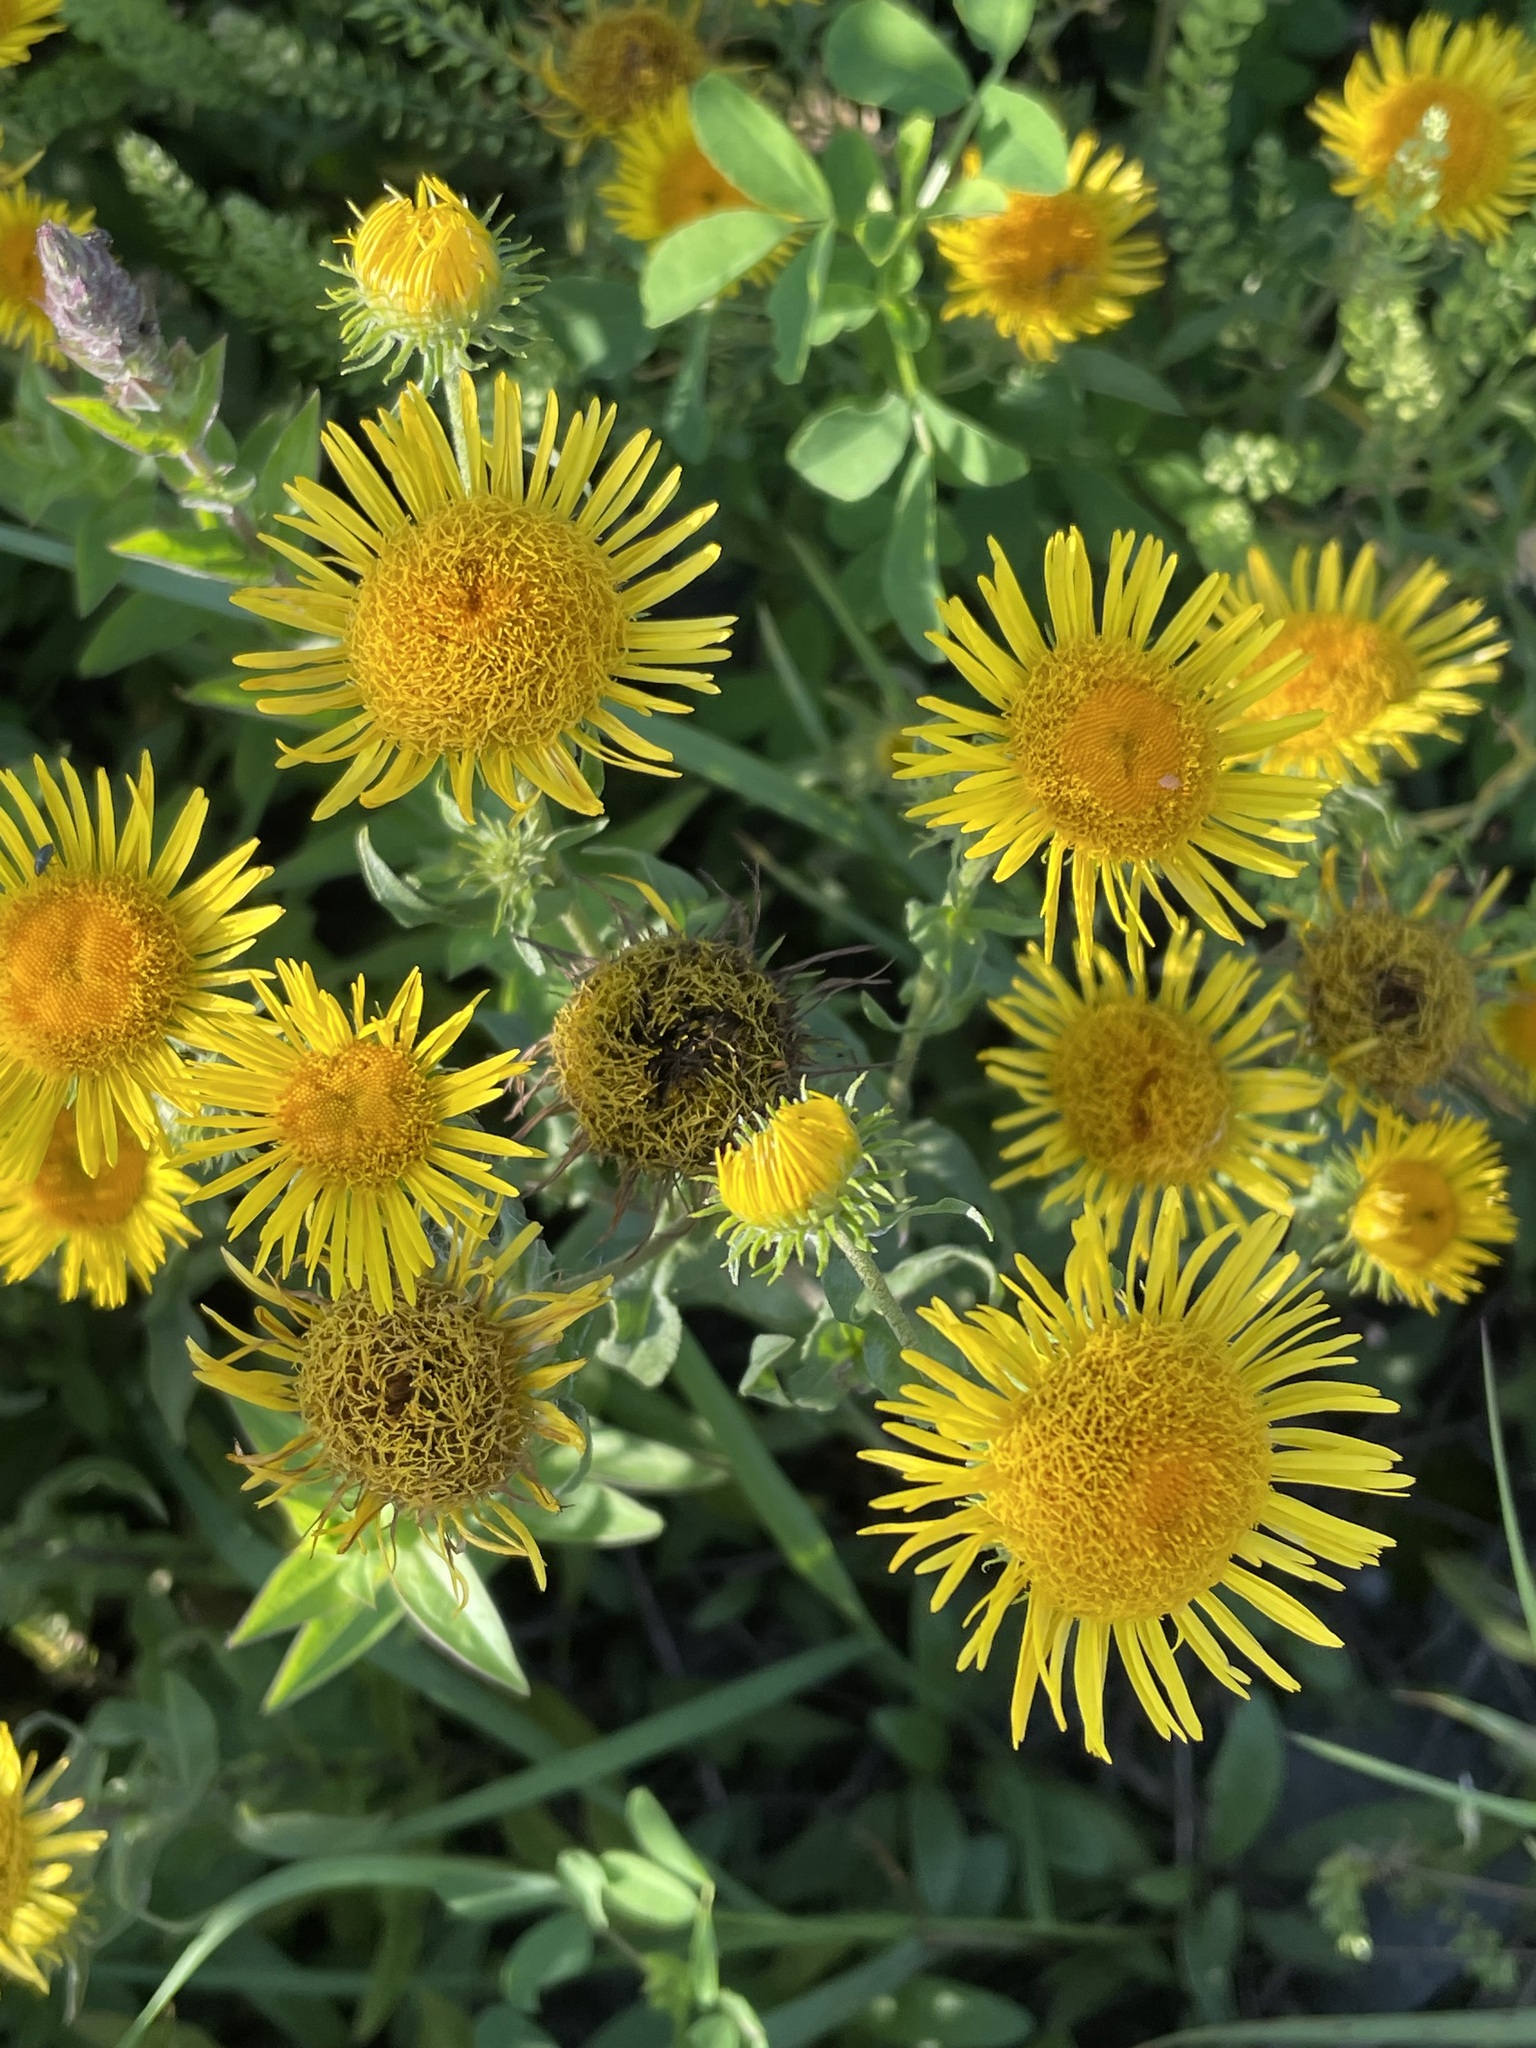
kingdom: Plantae
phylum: Tracheophyta
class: Magnoliopsida
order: Asterales
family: Asteraceae
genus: Pentanema
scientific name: Pentanema britannicum
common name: British elecampane
